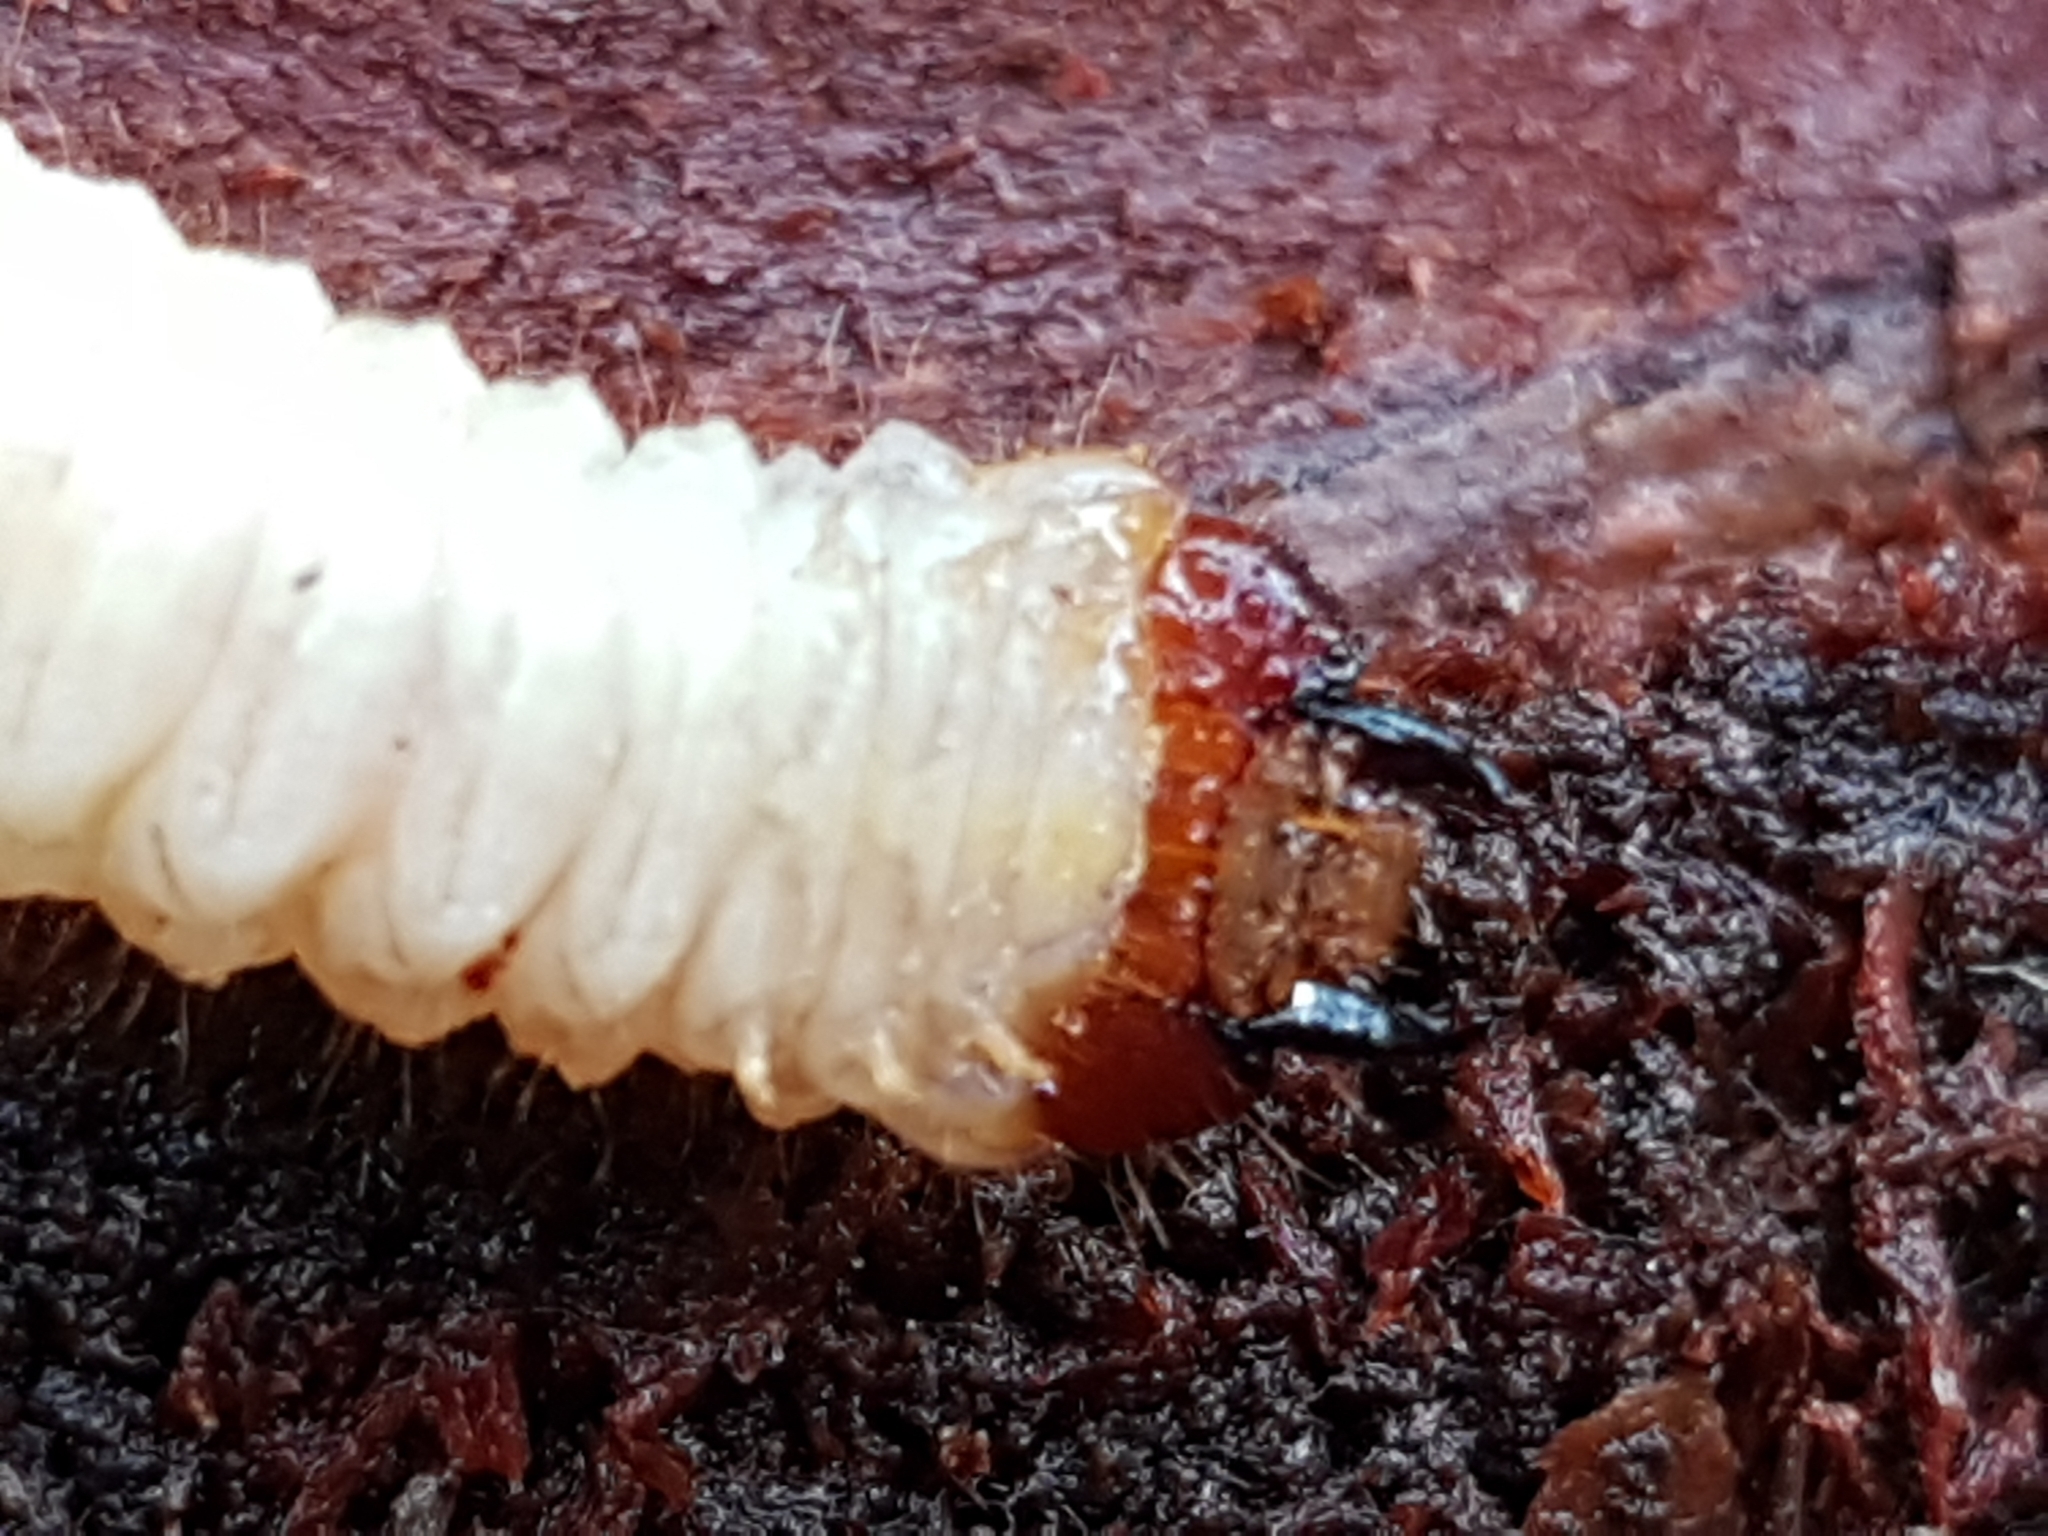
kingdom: Animalia
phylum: Arthropoda
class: Insecta
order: Coleoptera
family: Cerambycidae
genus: Rhagium
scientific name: Rhagium inquisitor
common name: Ribbed pine borer
